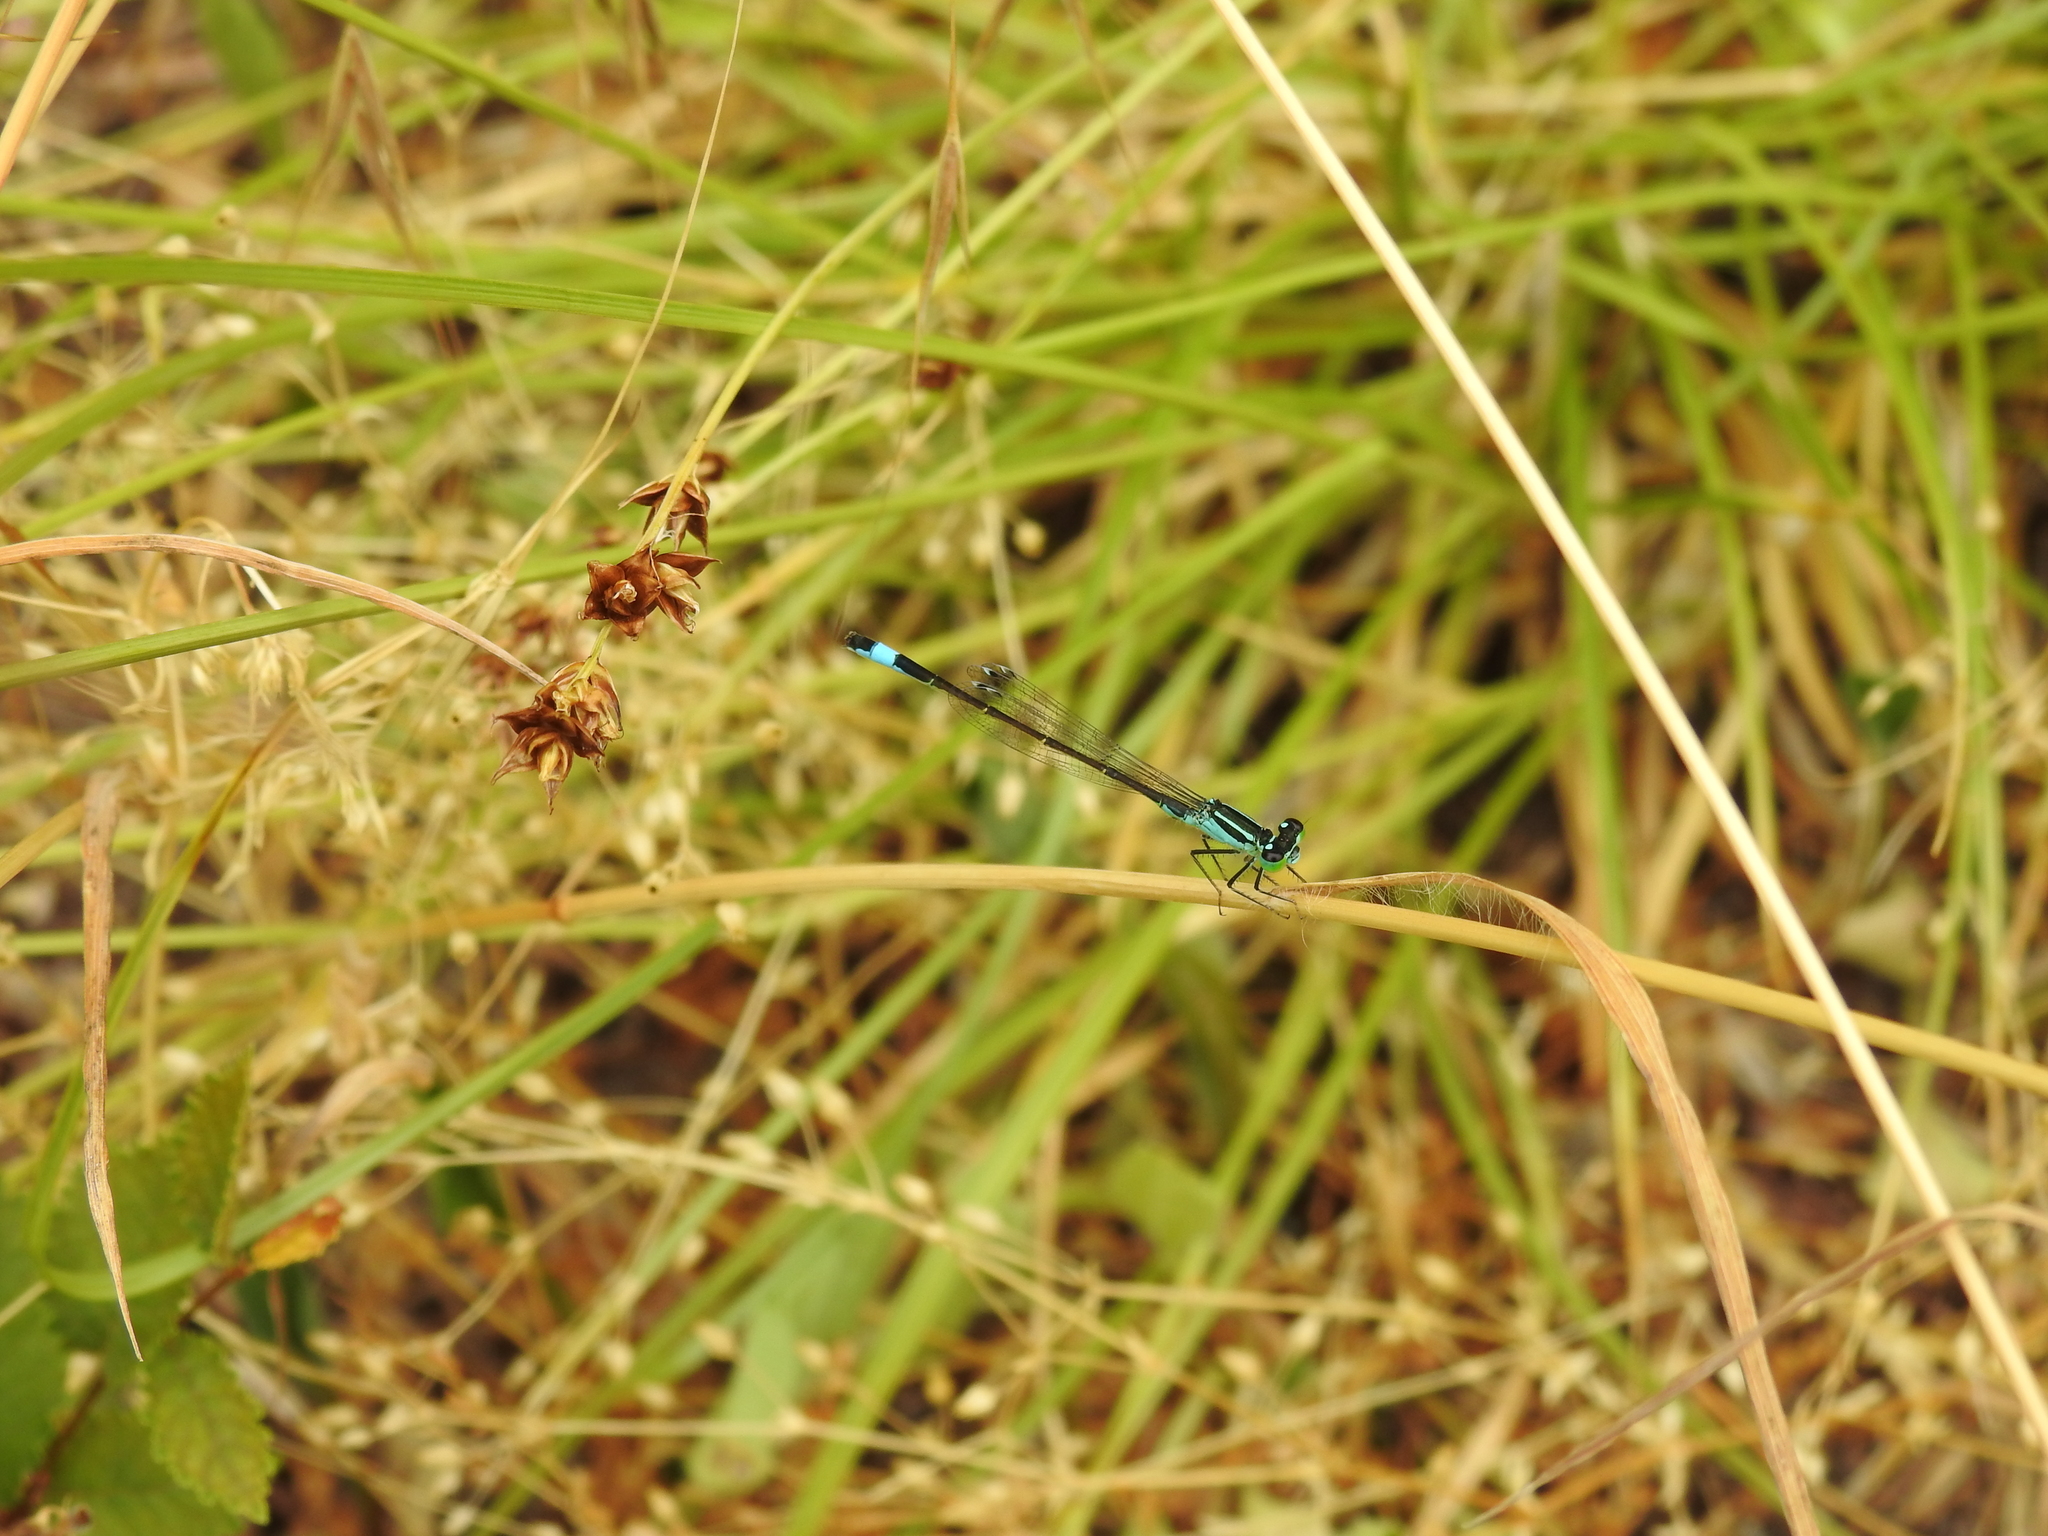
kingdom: Animalia
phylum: Arthropoda
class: Insecta
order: Odonata
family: Coenagrionidae
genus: Ischnura
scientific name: Ischnura elegans
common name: Blue-tailed damselfly
